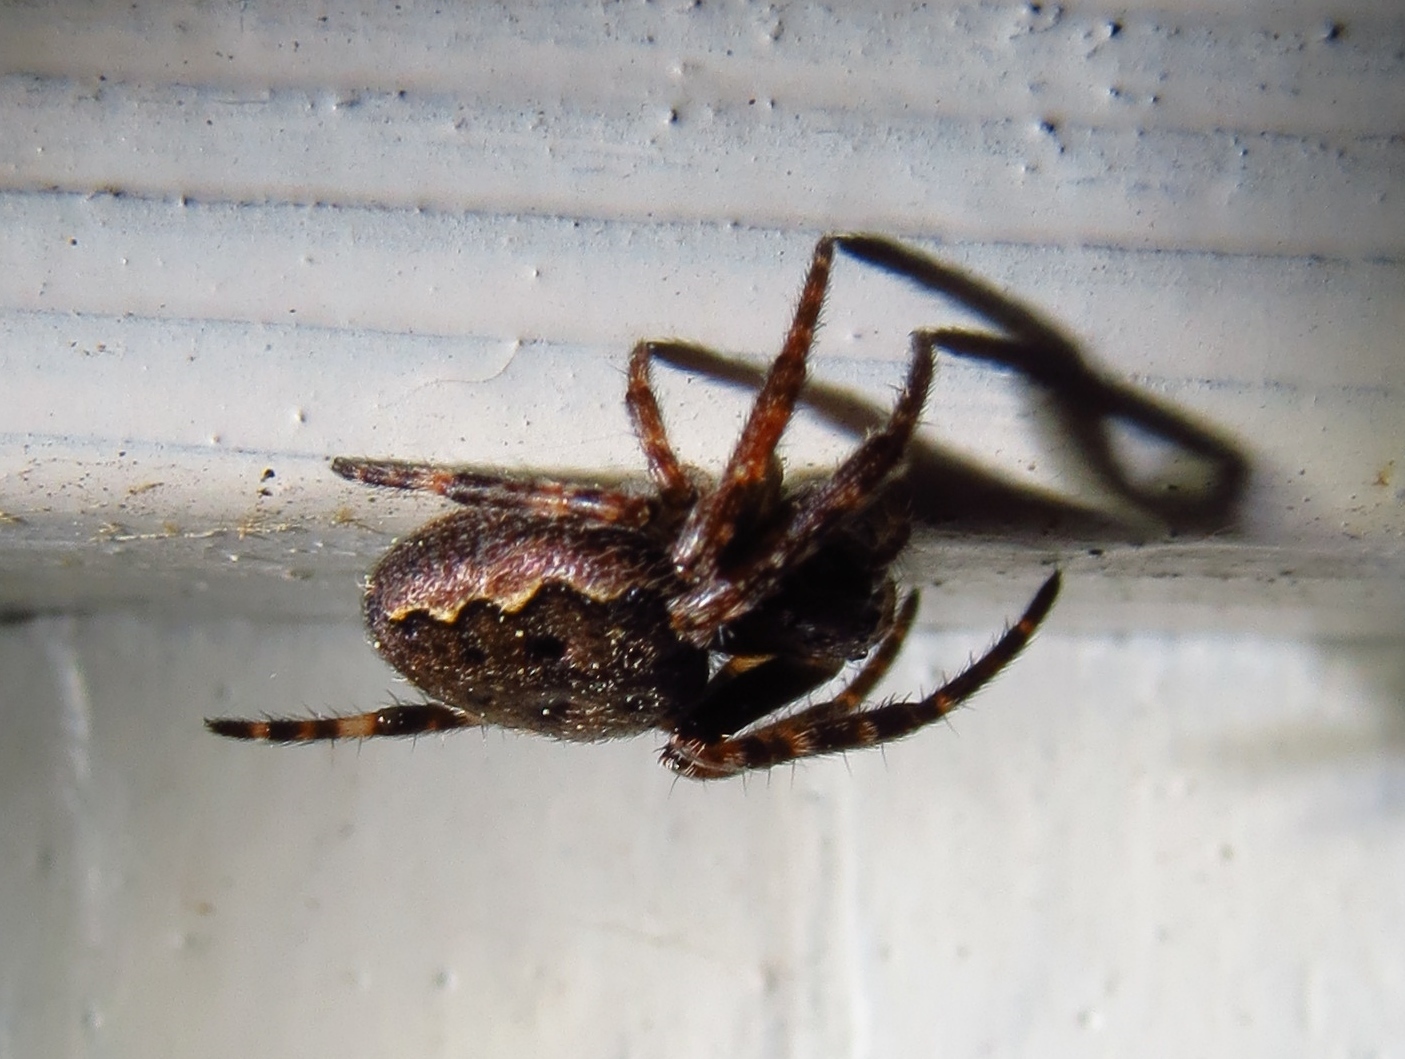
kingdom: Animalia
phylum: Arthropoda
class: Arachnida
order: Araneae
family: Araneidae
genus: Nuctenea
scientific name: Nuctenea umbratica
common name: Toad spider
